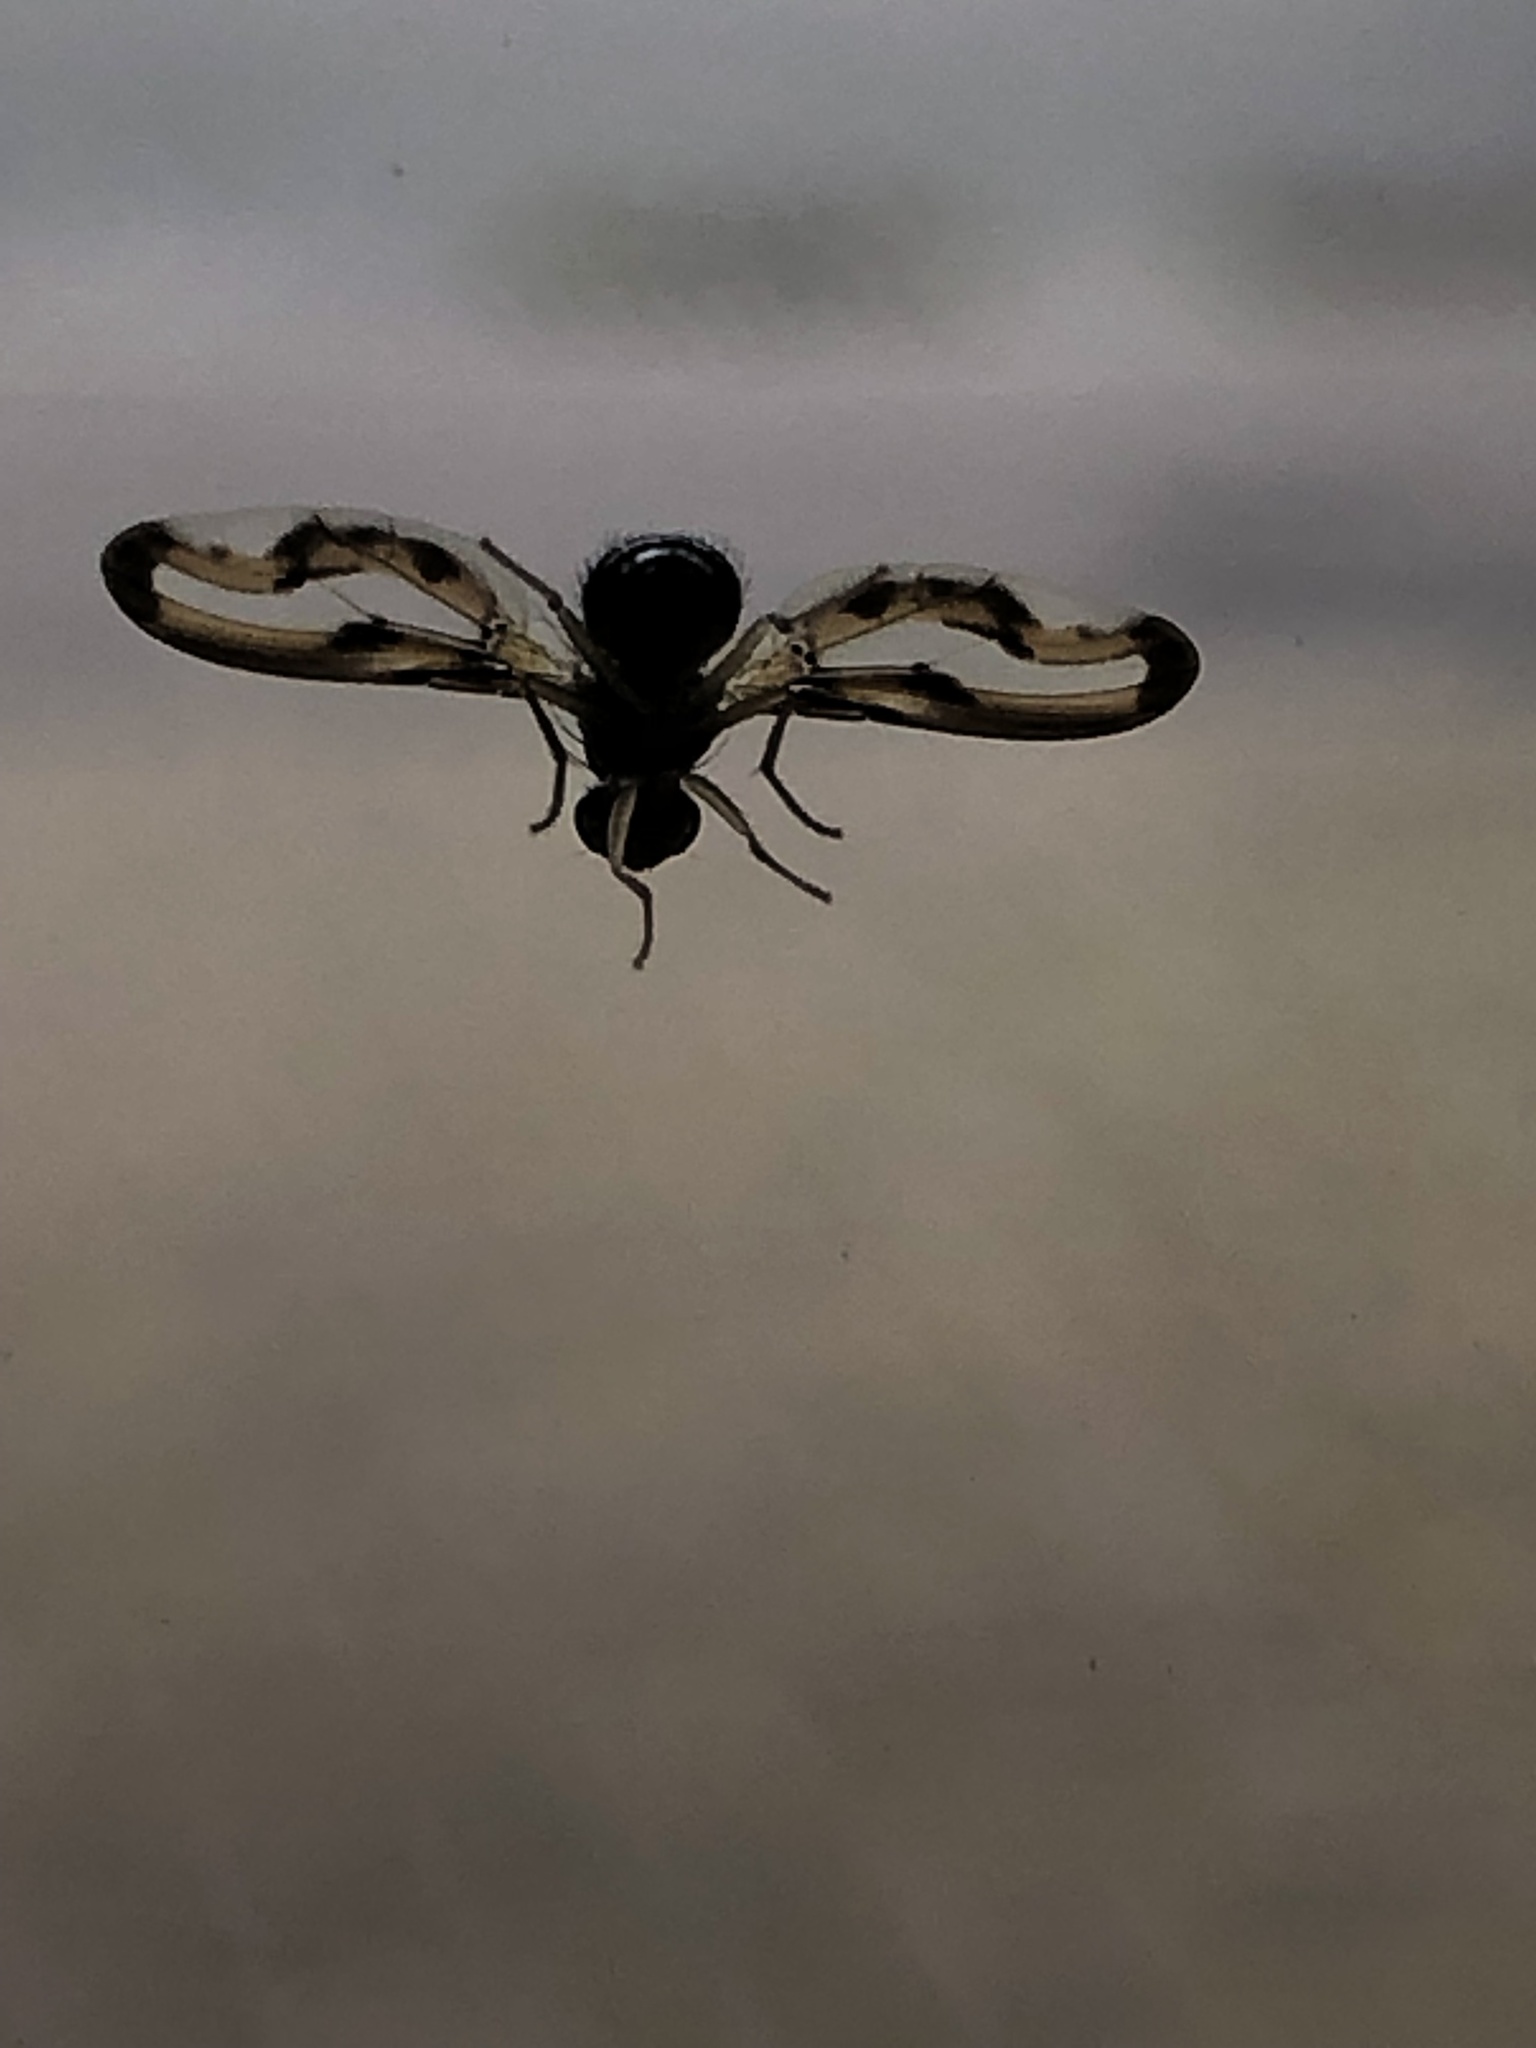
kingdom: Animalia
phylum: Arthropoda
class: Insecta
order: Diptera
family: Pallopteridae
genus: Toxonevra
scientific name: Toxonevra muliebris
